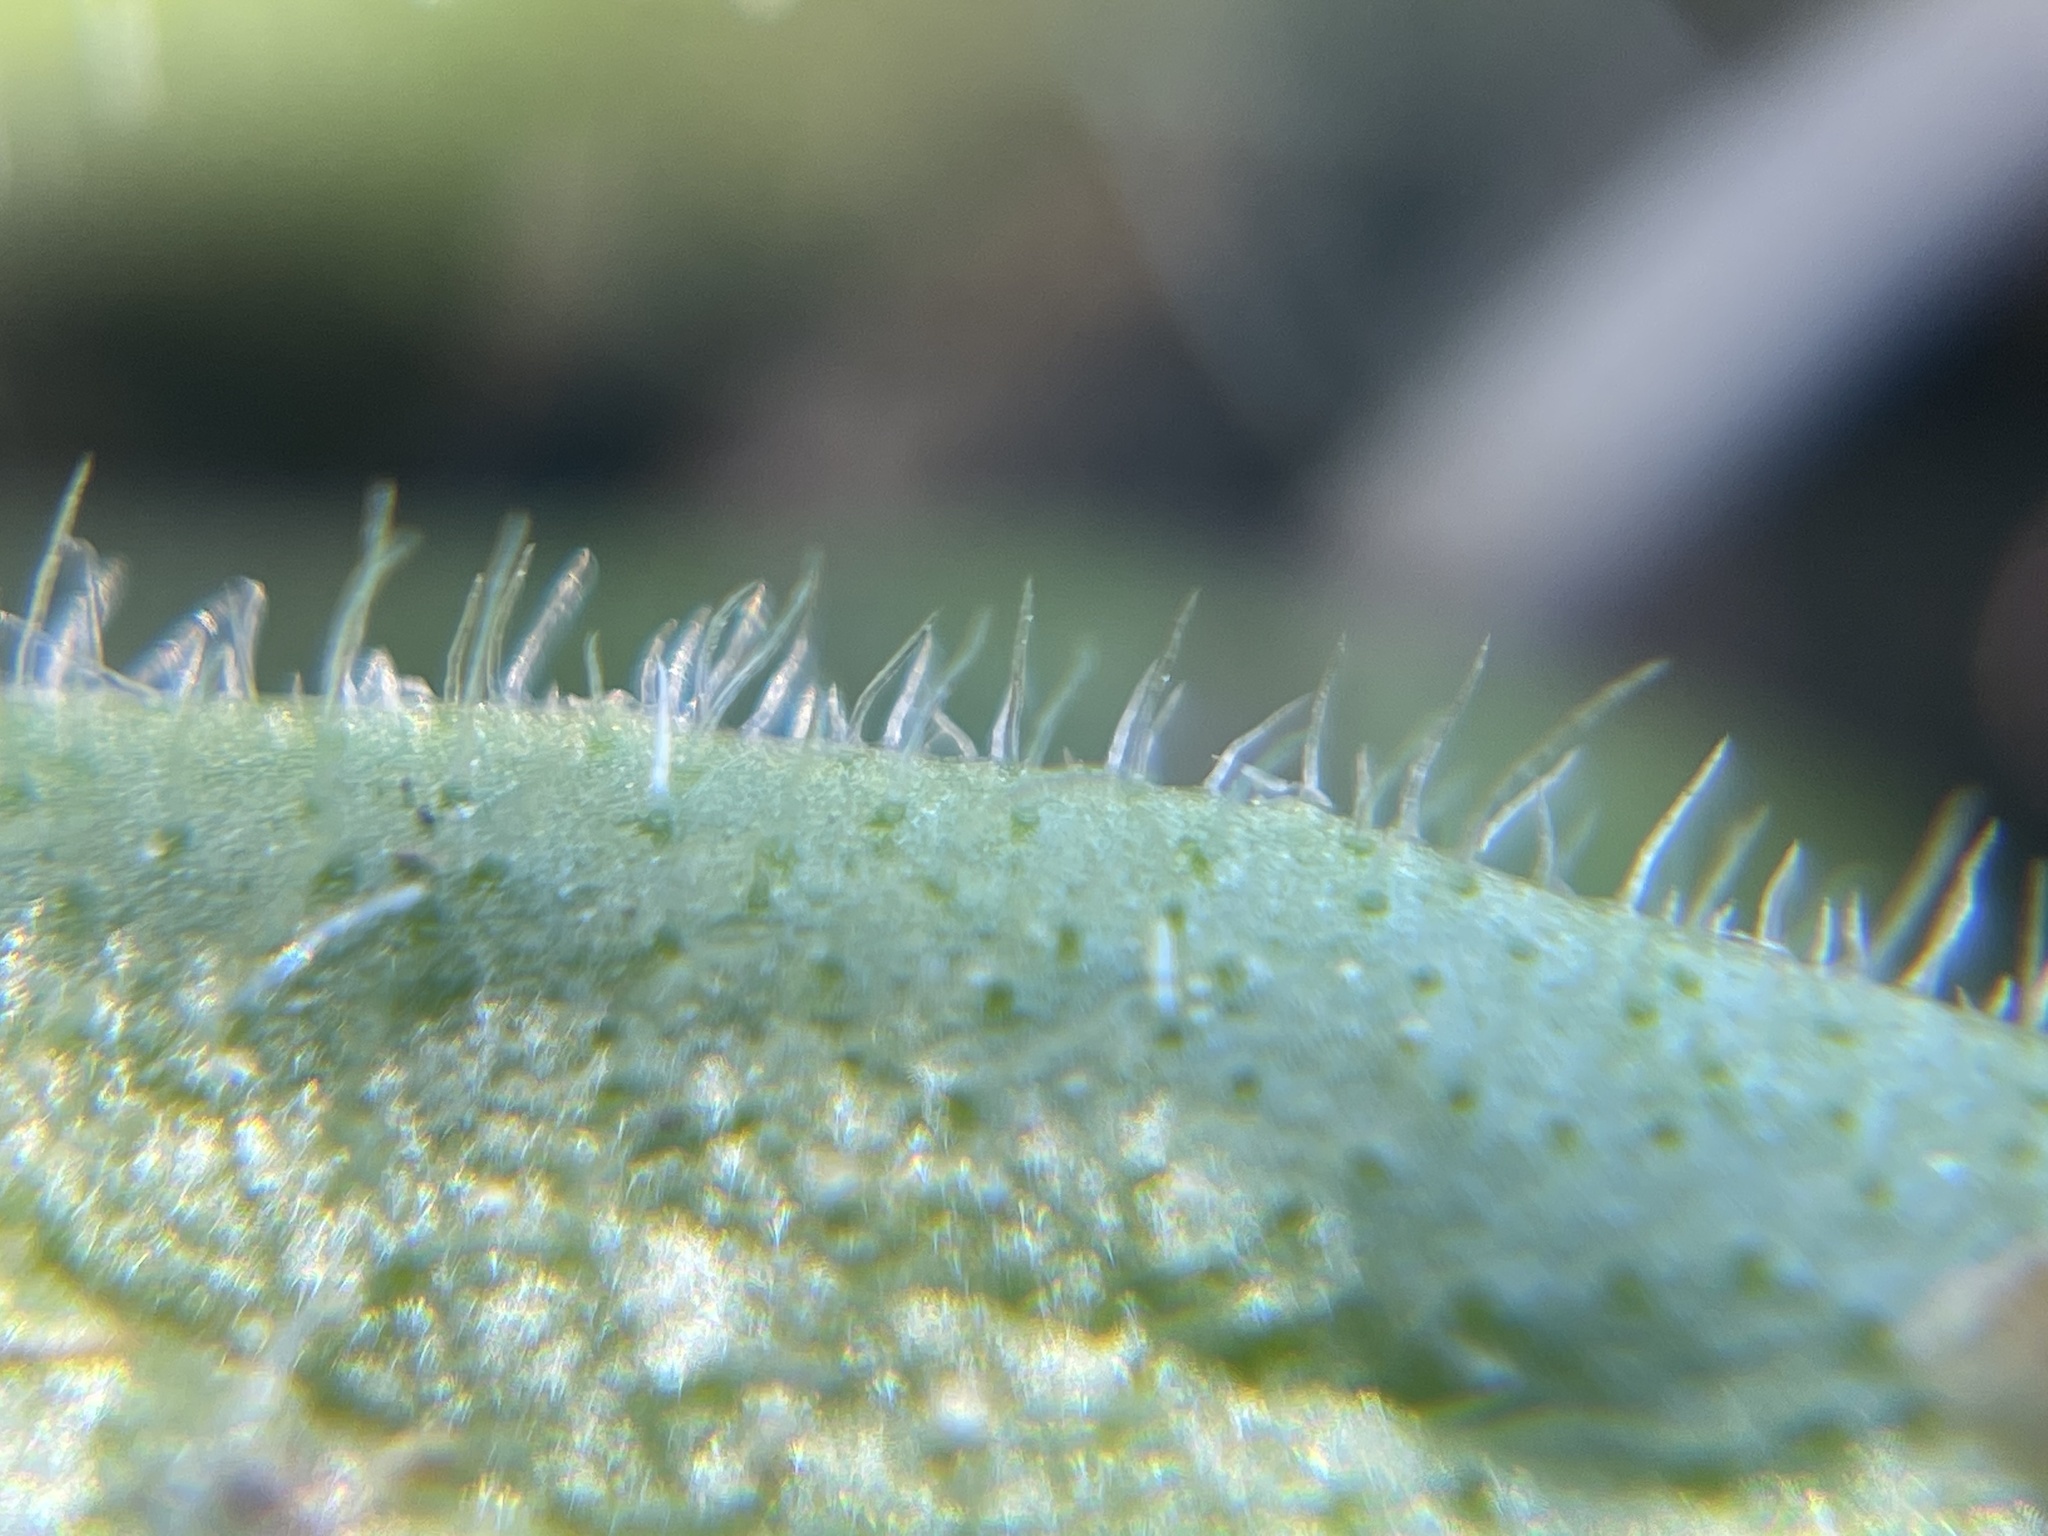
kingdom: Plantae
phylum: Tracheophyta
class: Magnoliopsida
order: Lamiales
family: Plantaginaceae
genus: Plantago
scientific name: Plantago virginica
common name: Hoary plantain
